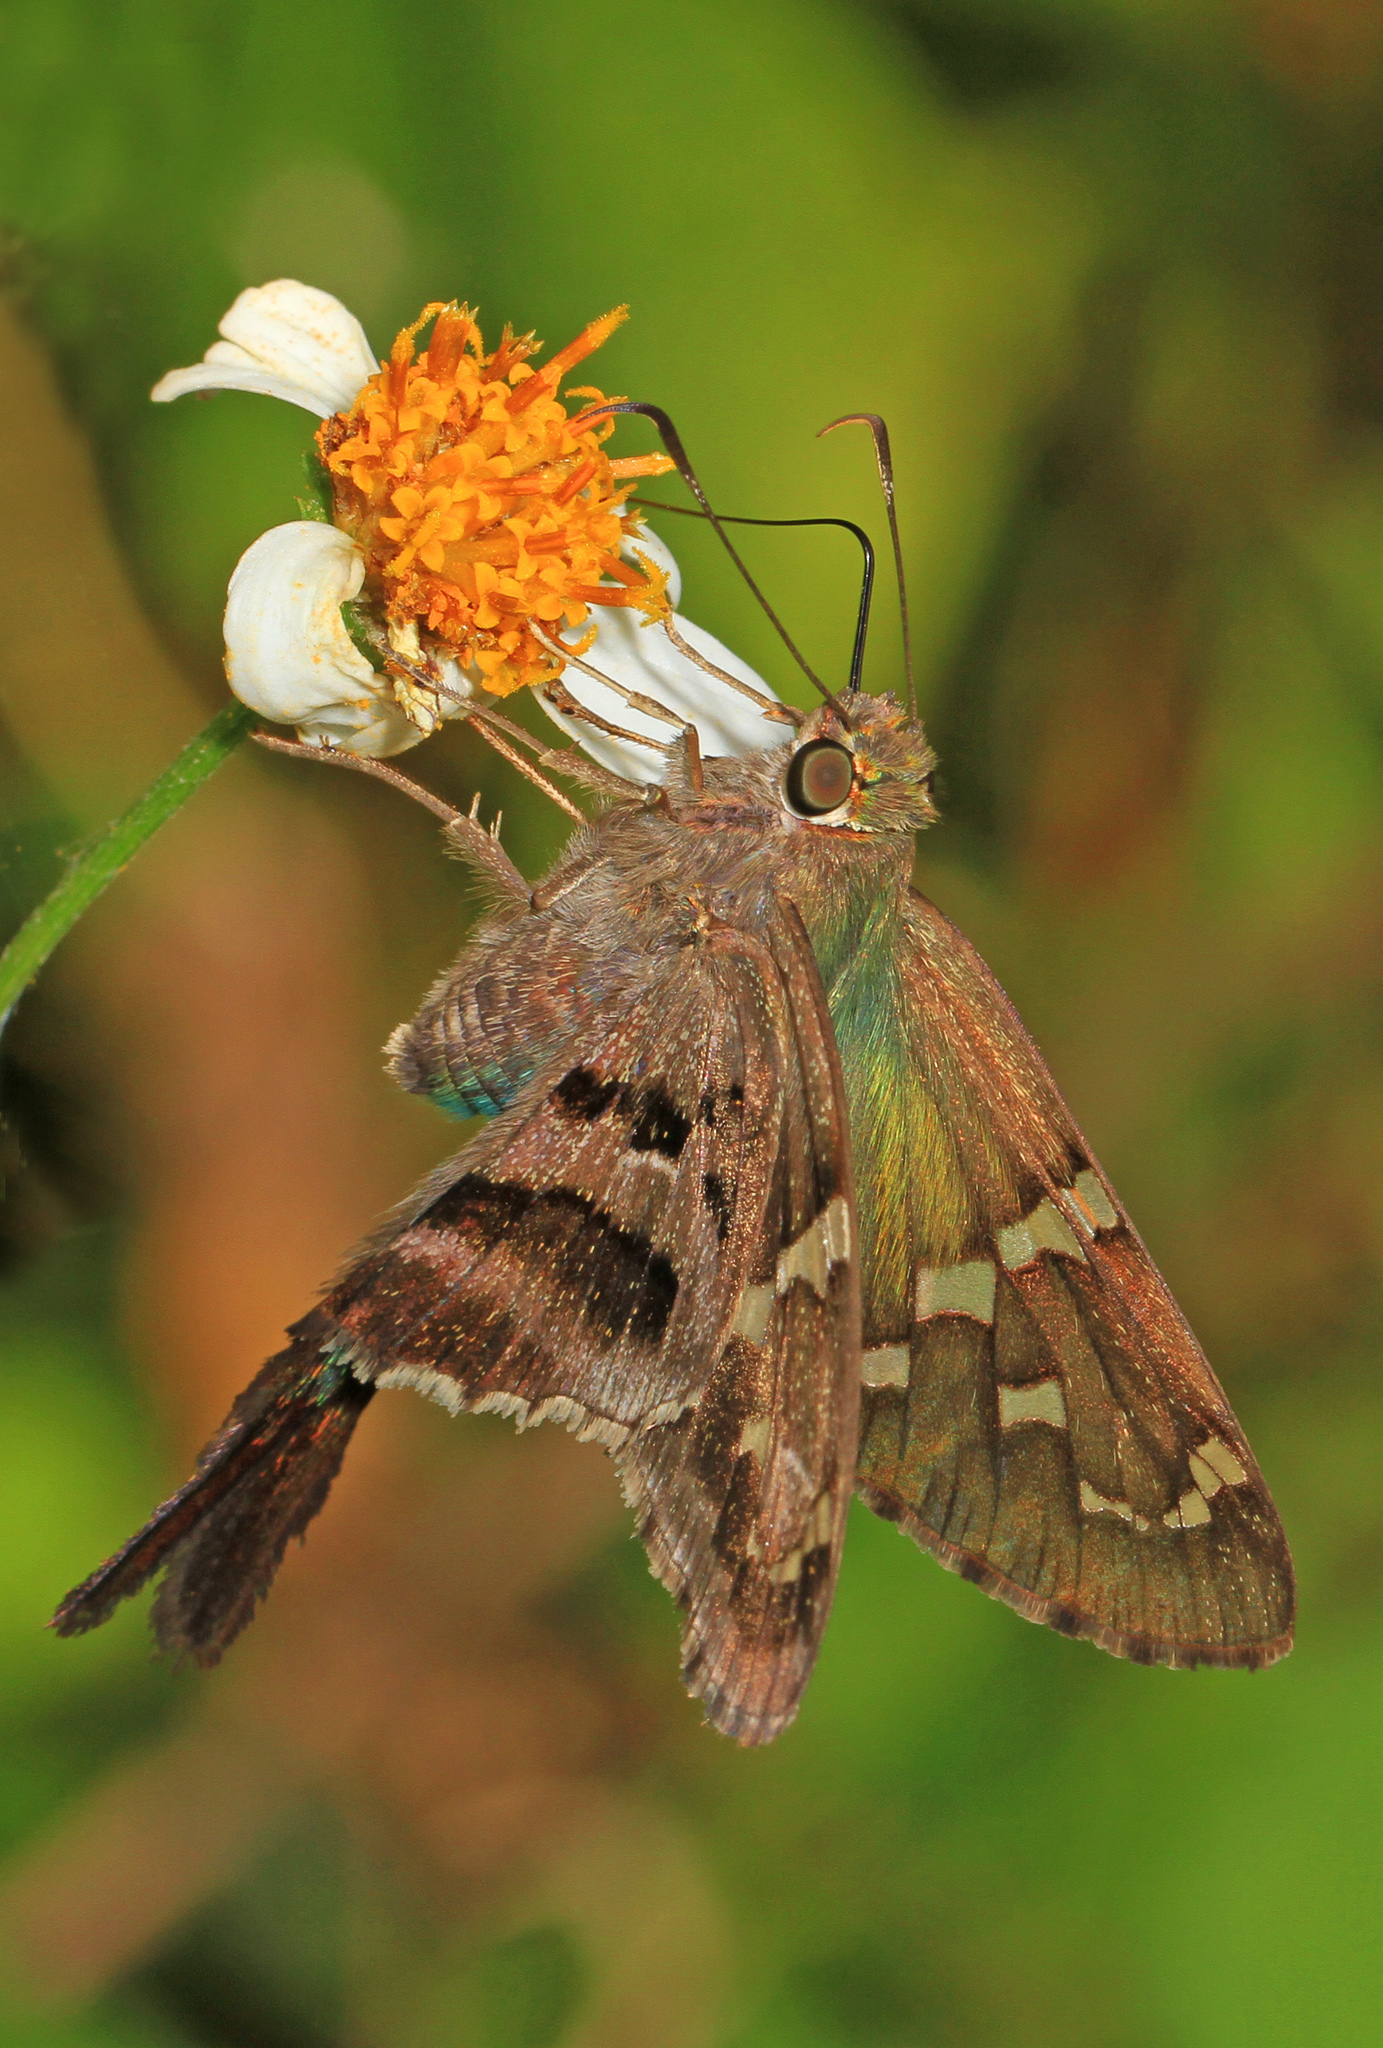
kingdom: Animalia
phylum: Arthropoda
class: Insecta
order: Lepidoptera
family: Hesperiidae
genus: Urbanus
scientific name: Urbanus proteus
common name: Long-tailed skipper
